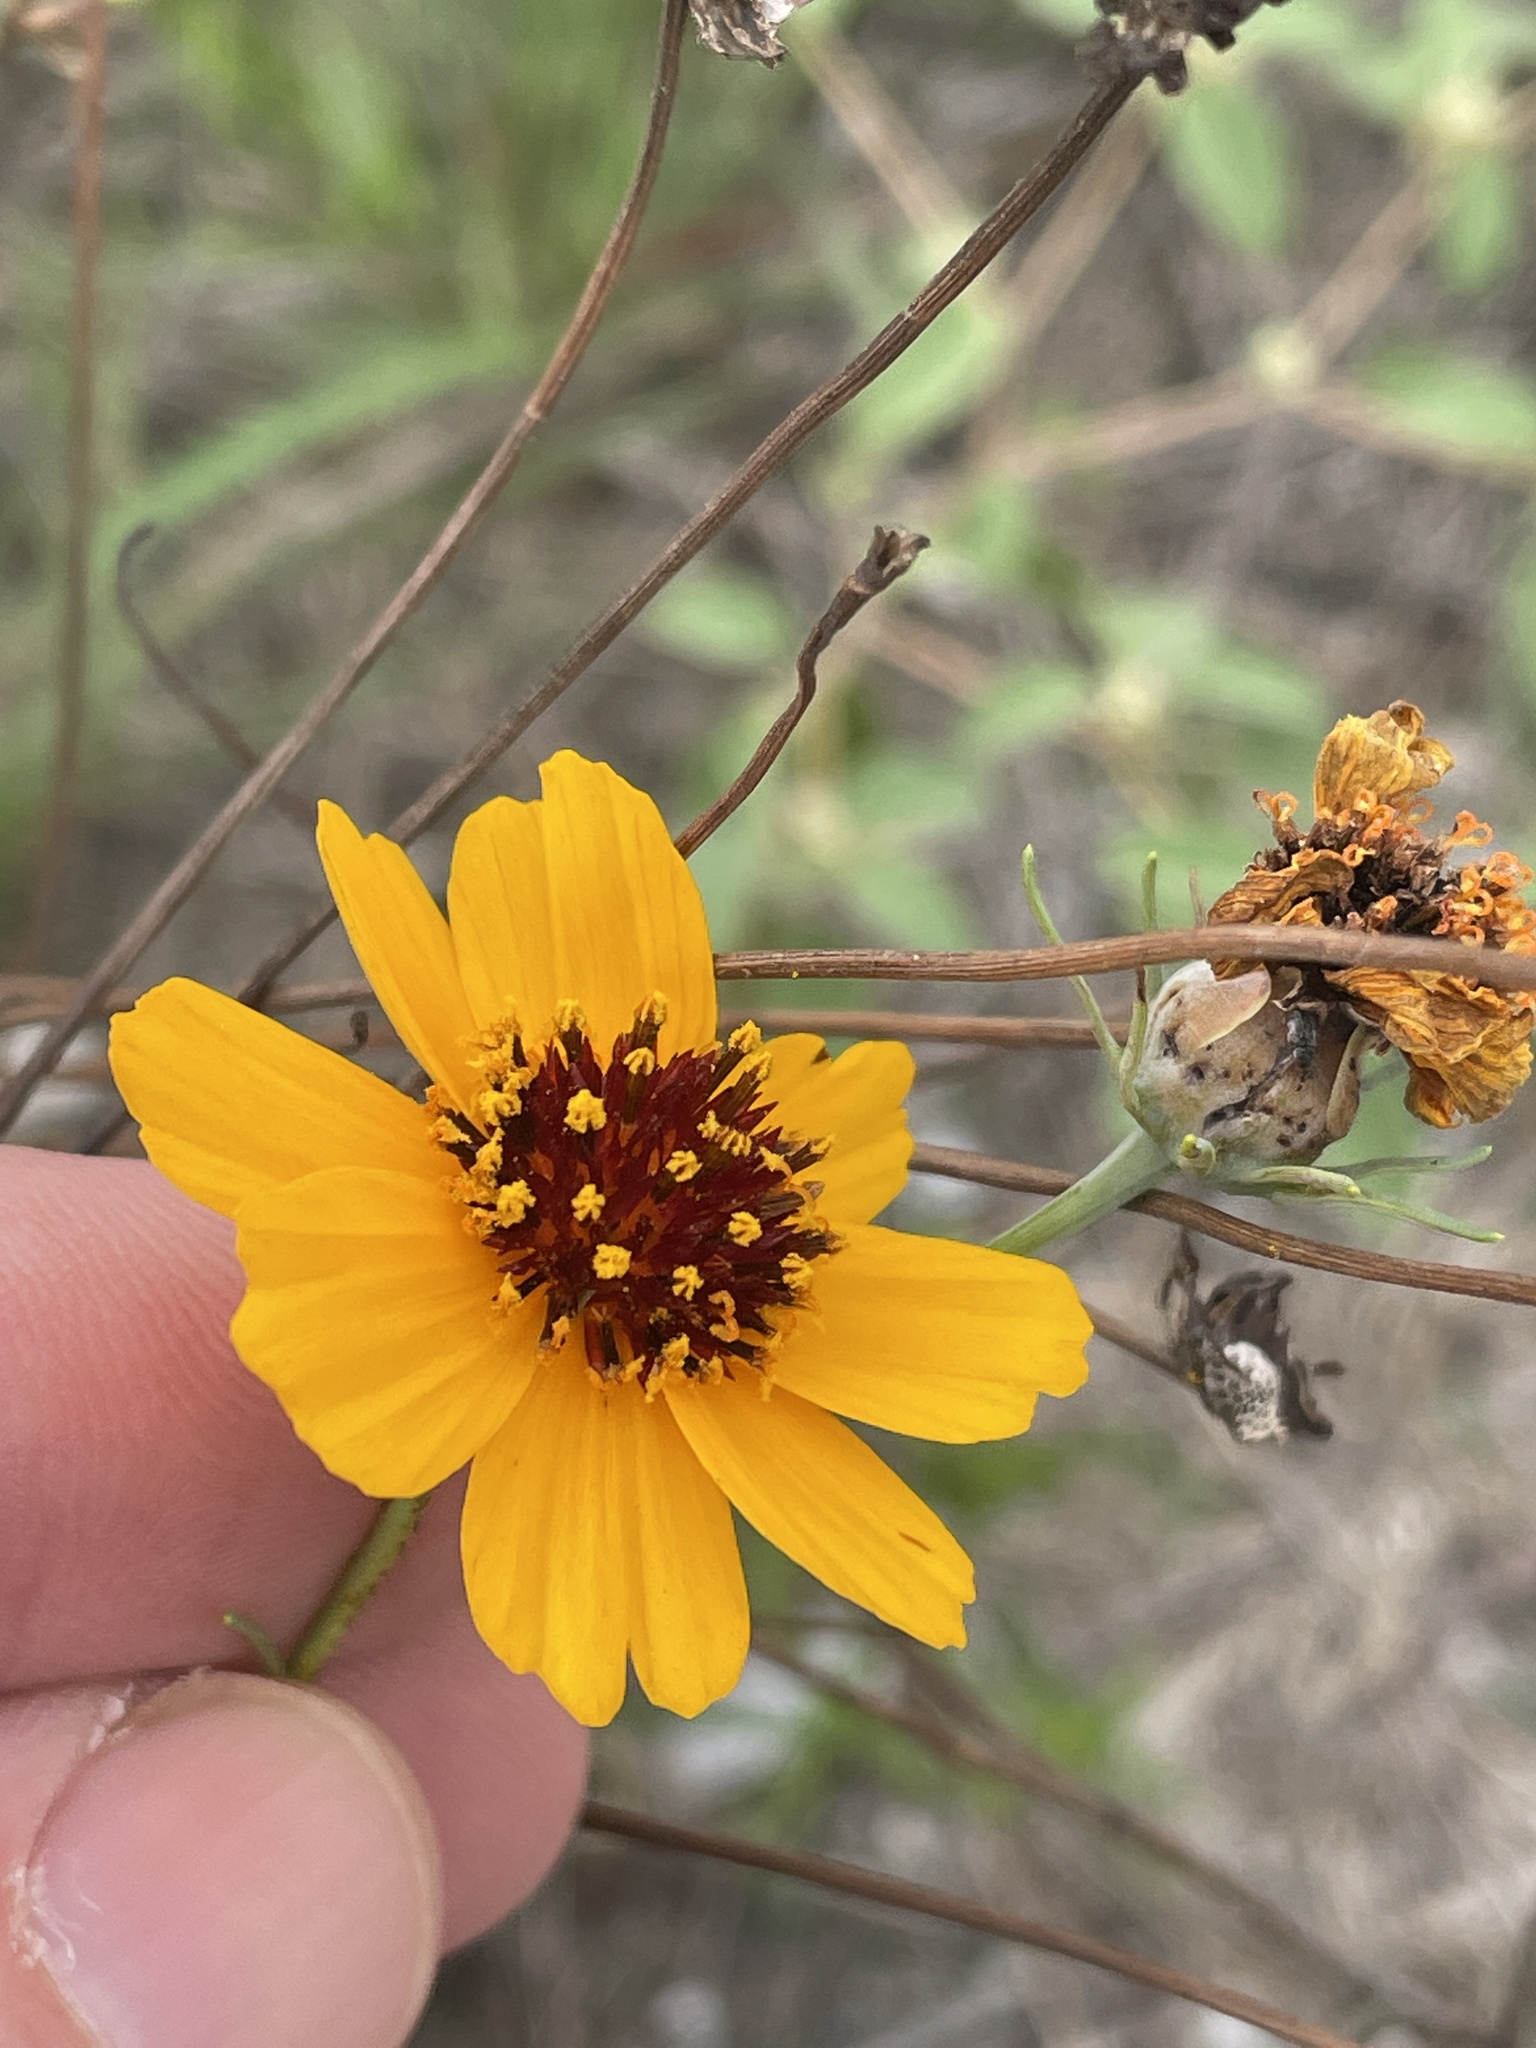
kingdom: Plantae
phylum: Tracheophyta
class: Magnoliopsida
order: Asterales
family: Asteraceae
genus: Thelesperma
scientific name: Thelesperma filifolium
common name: Stiff greenthread
